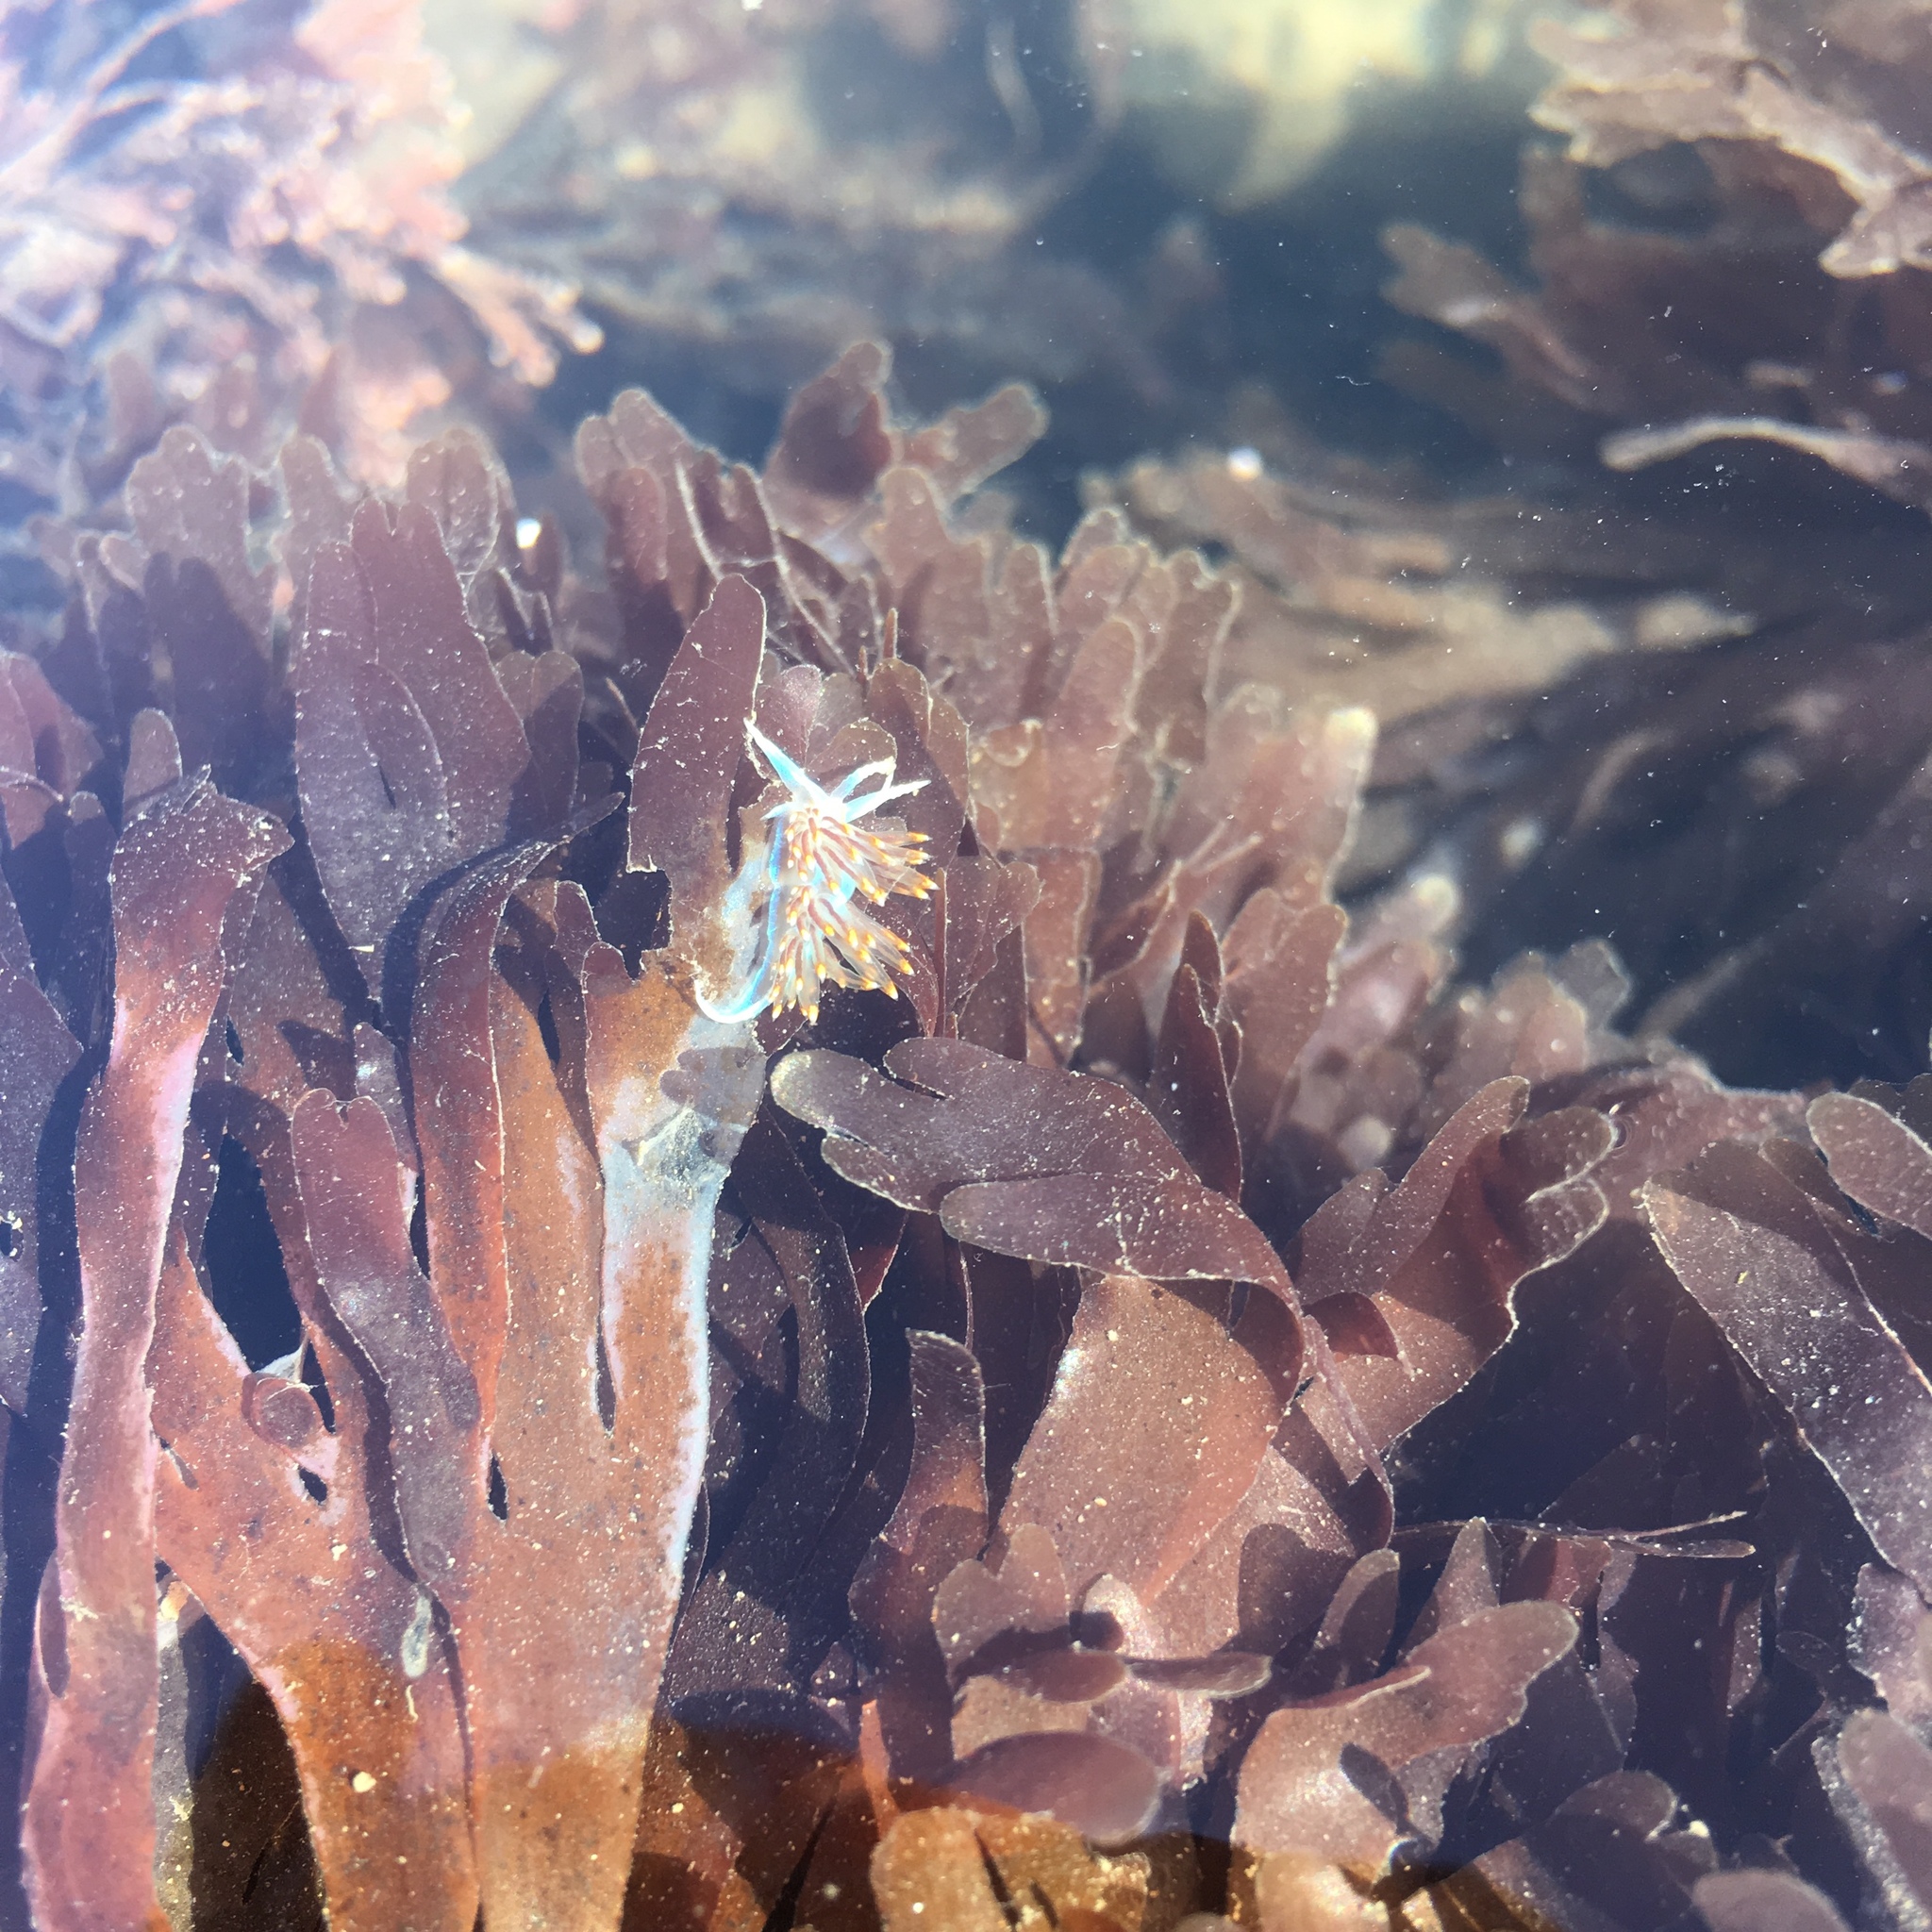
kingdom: Animalia
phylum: Mollusca
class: Gastropoda
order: Nudibranchia
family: Myrrhinidae
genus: Hermissenda
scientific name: Hermissenda opalescens
